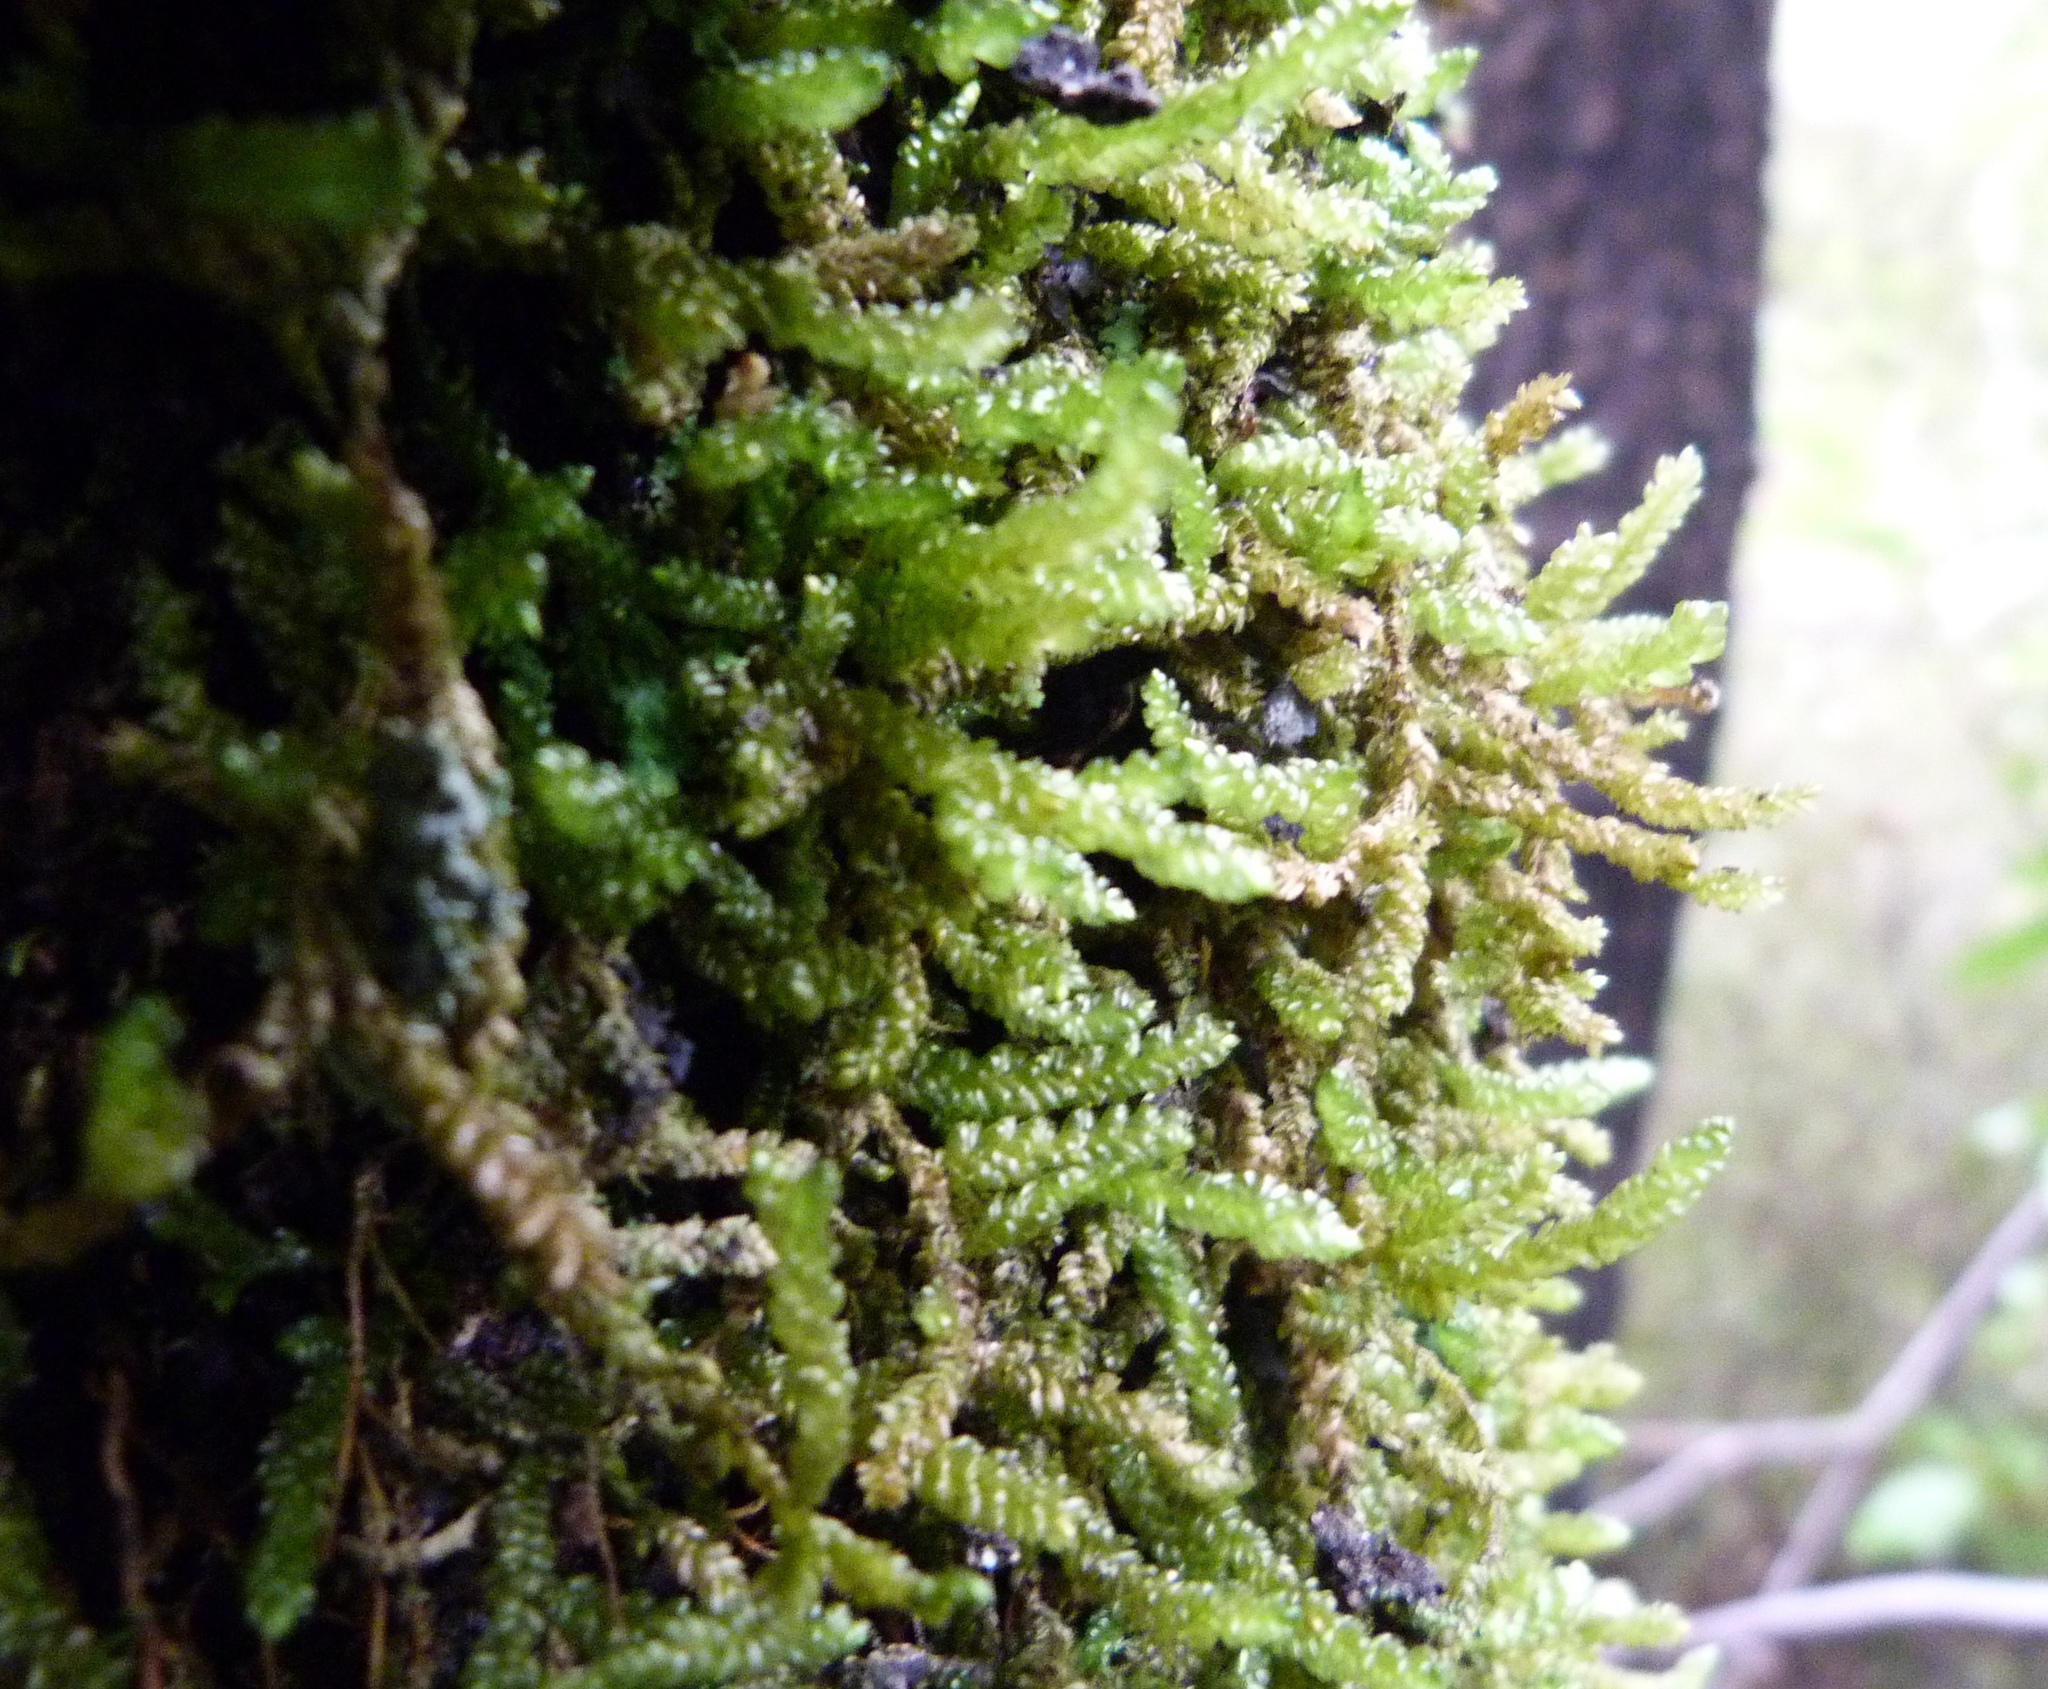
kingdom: Plantae
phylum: Bryophyta
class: Bryopsida
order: Hypnales
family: Lembophyllaceae
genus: Weymouthia
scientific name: Weymouthia cochlearifolia
